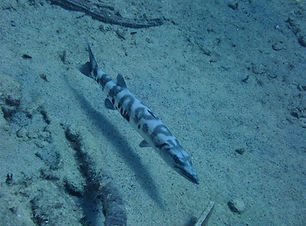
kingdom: Animalia
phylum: Chordata
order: Perciformes
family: Sphyraenidae
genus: Sphyraena
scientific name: Sphyraena barracuda
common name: Great barracuda
